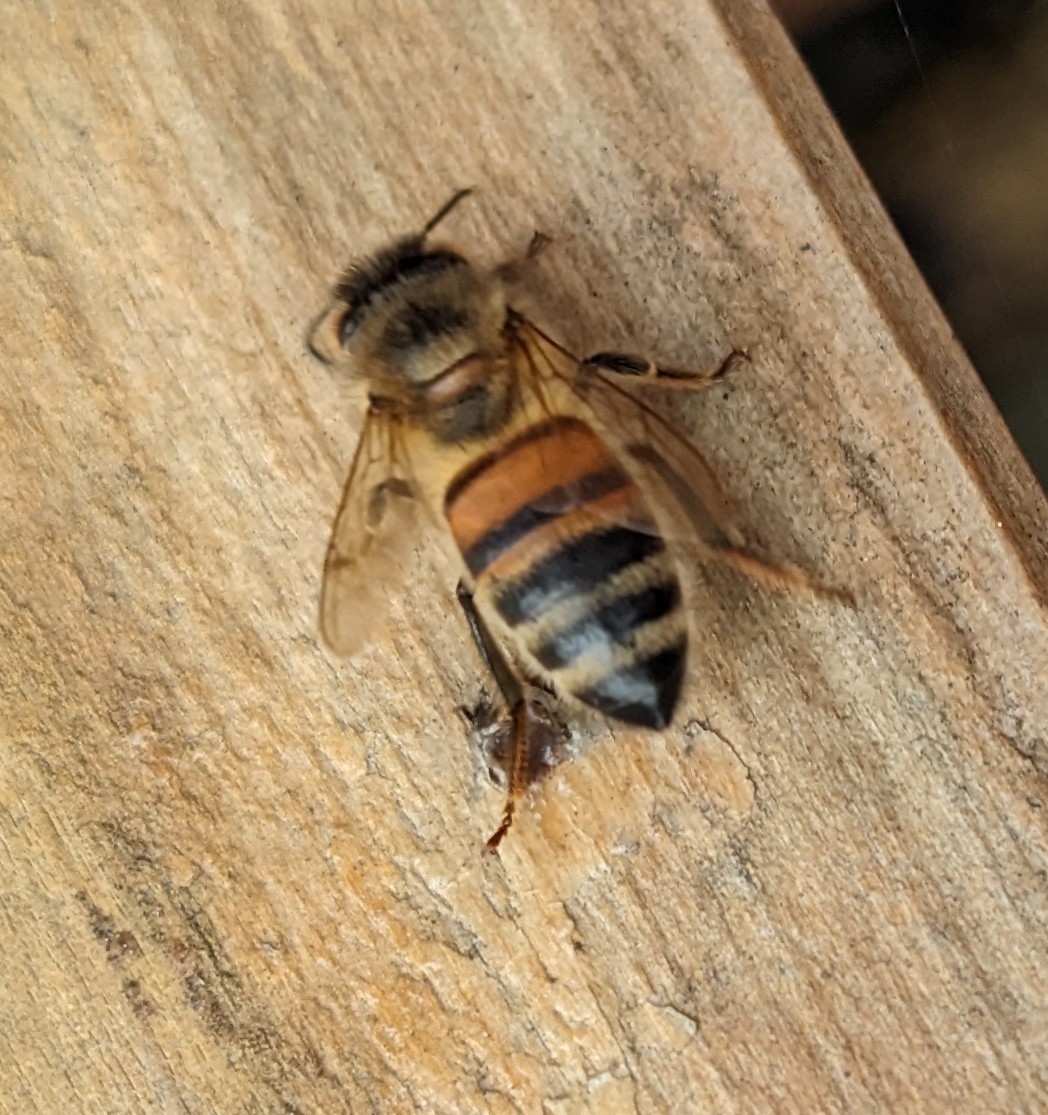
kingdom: Animalia
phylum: Arthropoda
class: Insecta
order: Hymenoptera
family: Apidae
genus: Apis
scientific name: Apis mellifera
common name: Honey bee
